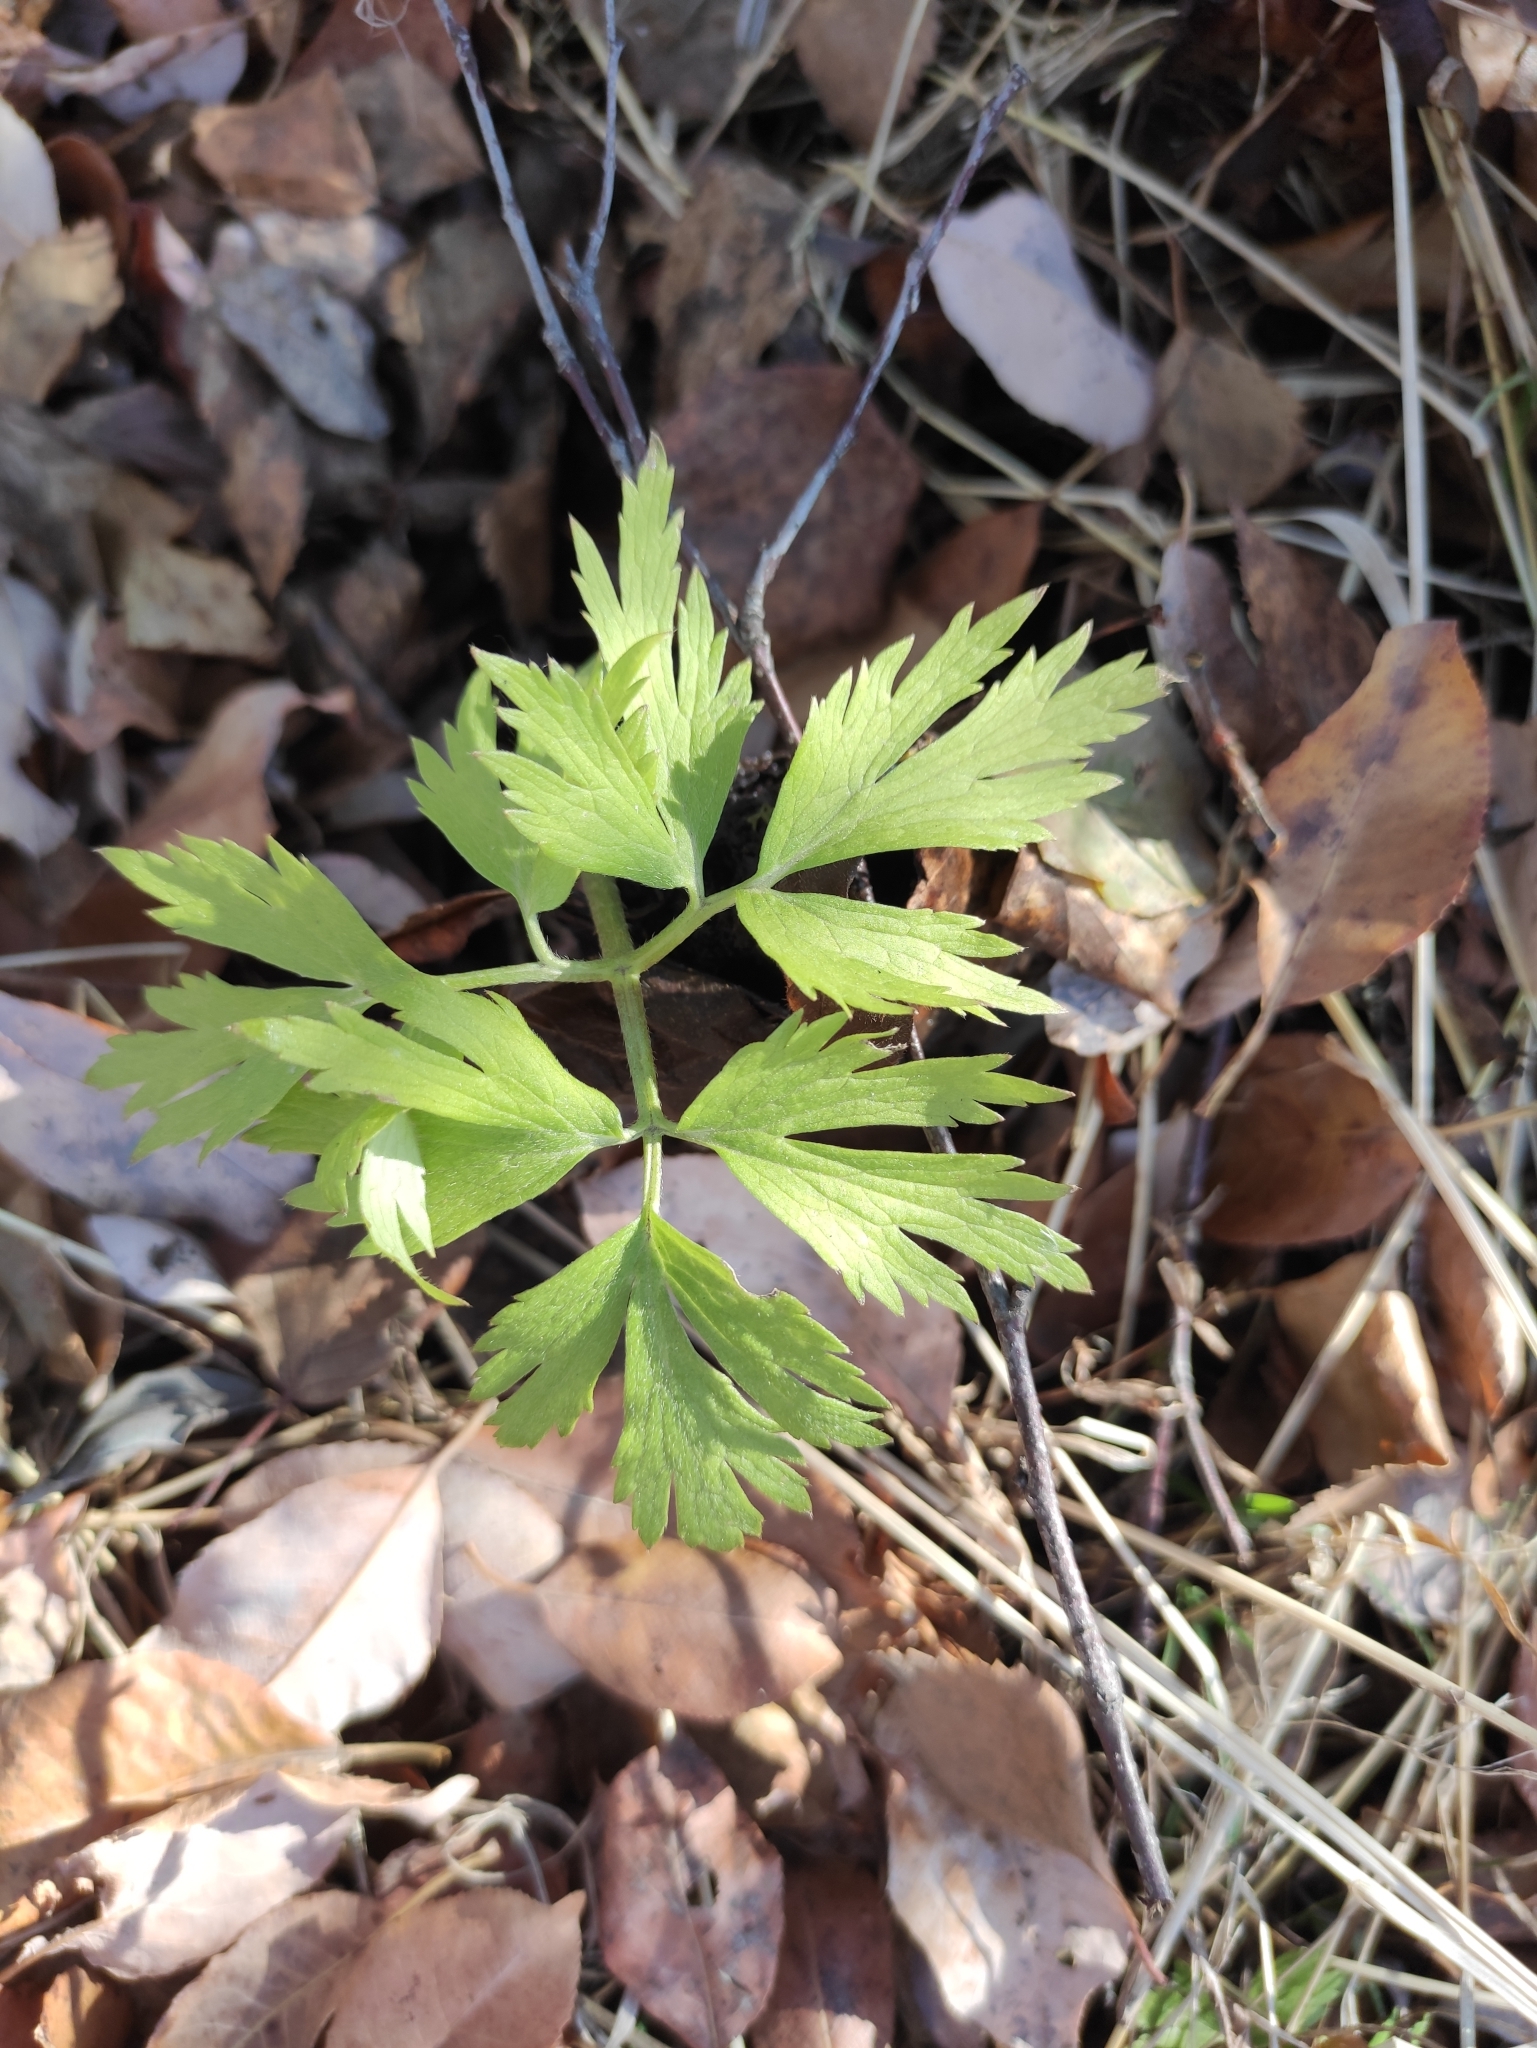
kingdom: Plantae
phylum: Tracheophyta
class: Magnoliopsida
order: Ranunculales
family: Ranunculaceae
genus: Ranunculus
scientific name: Ranunculus repens
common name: Creeping buttercup
